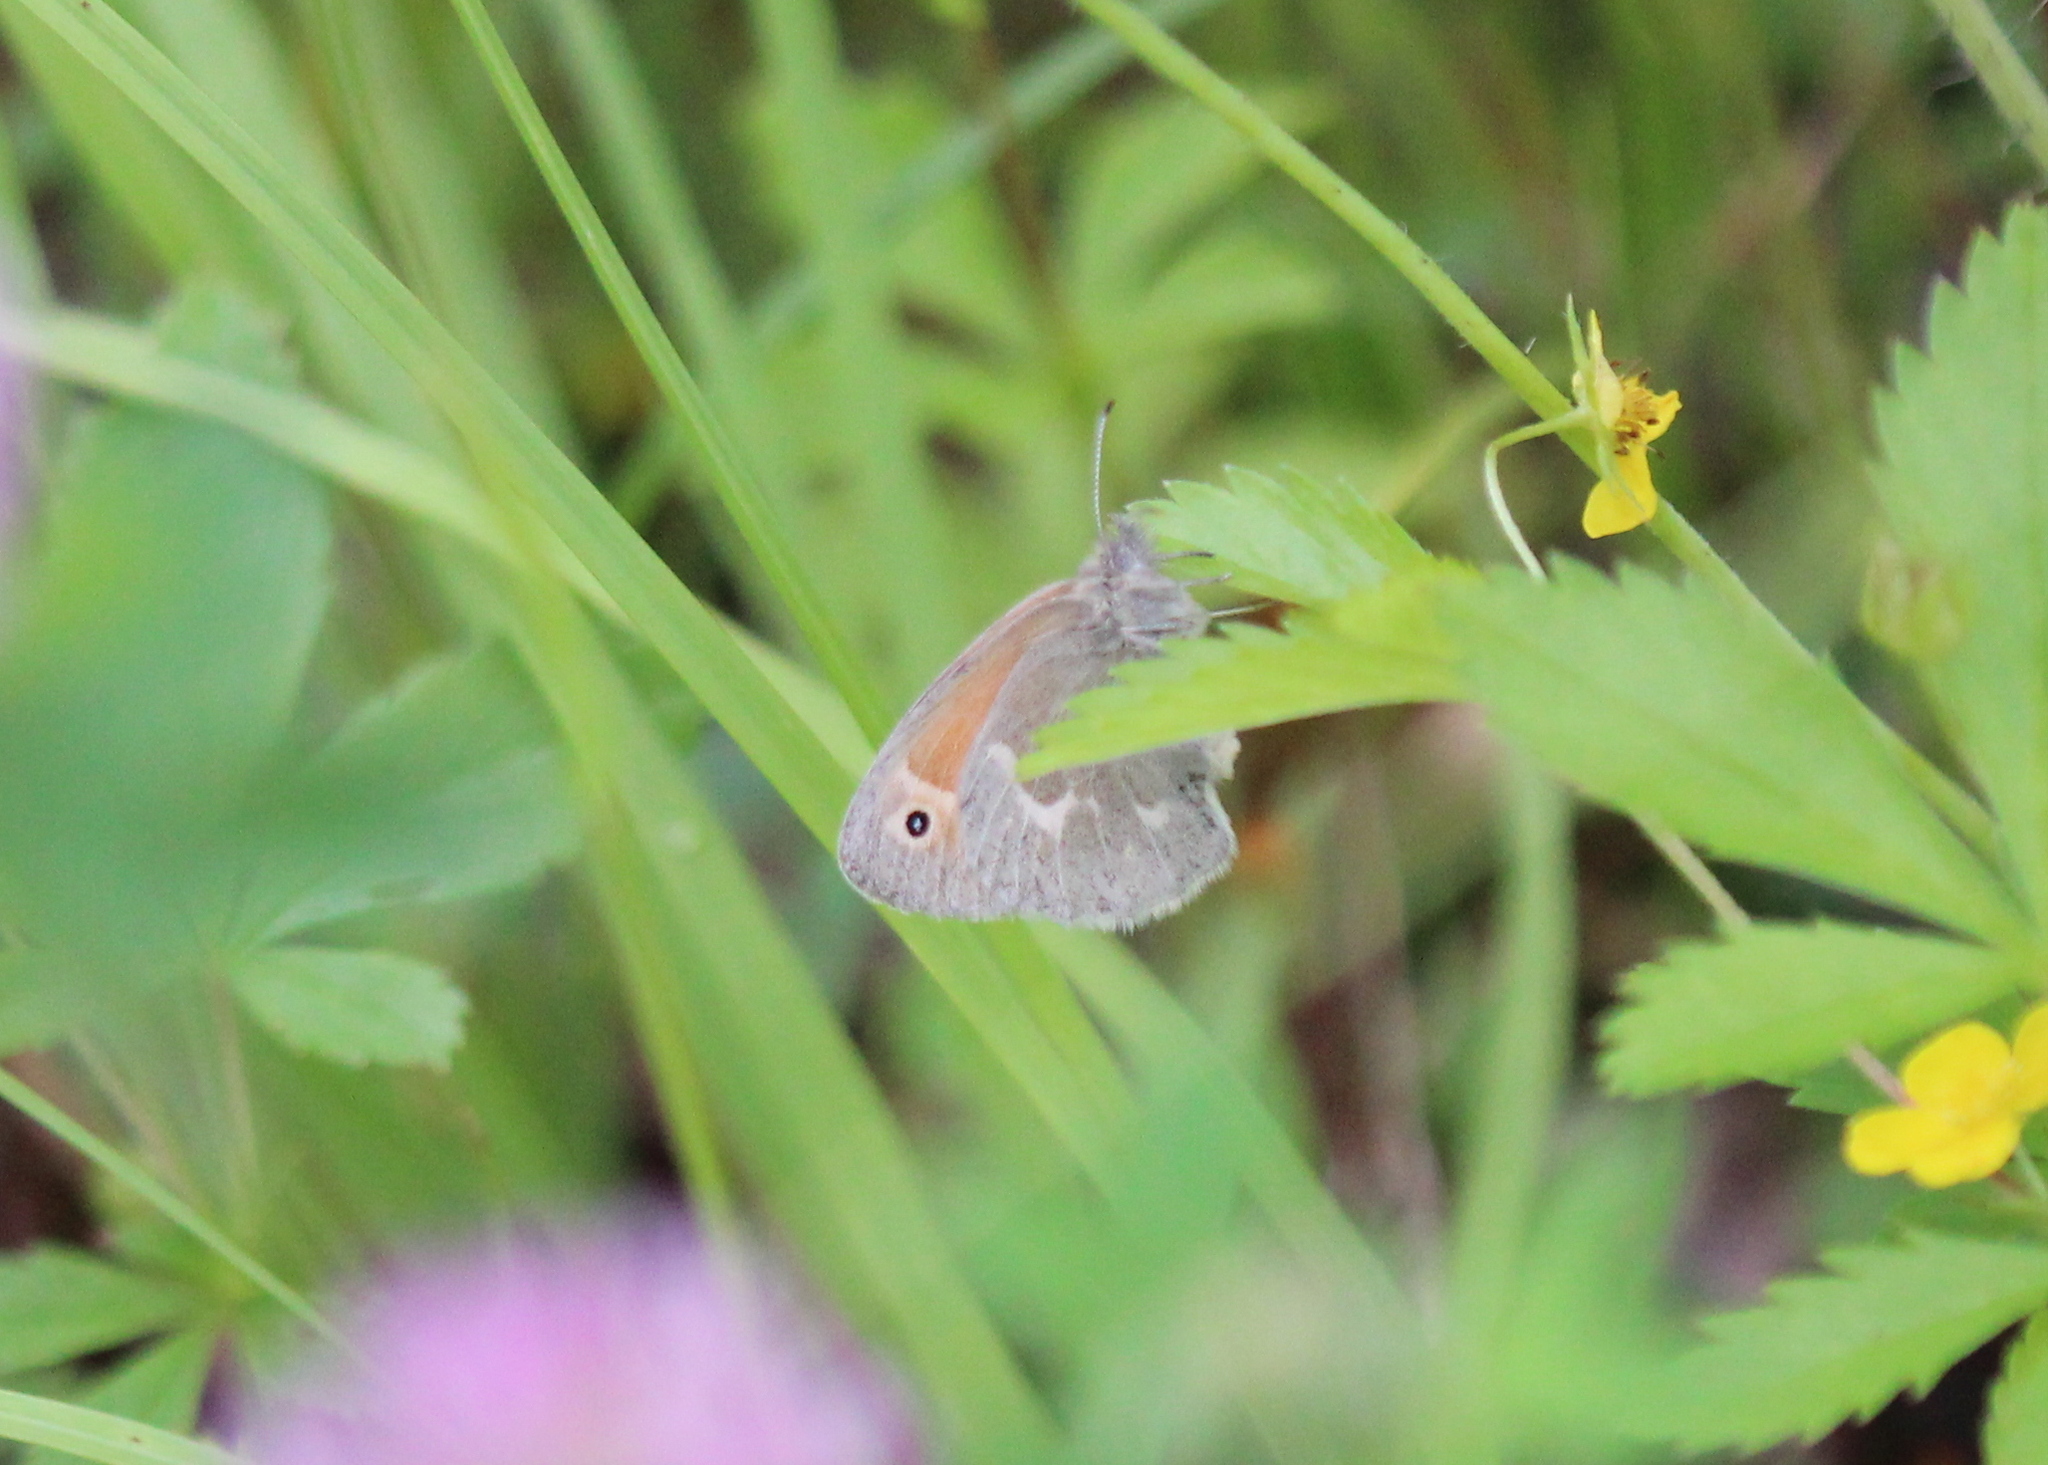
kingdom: Animalia
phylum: Arthropoda
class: Insecta
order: Lepidoptera
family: Nymphalidae
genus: Coenonympha
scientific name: Coenonympha california
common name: Common ringlet
